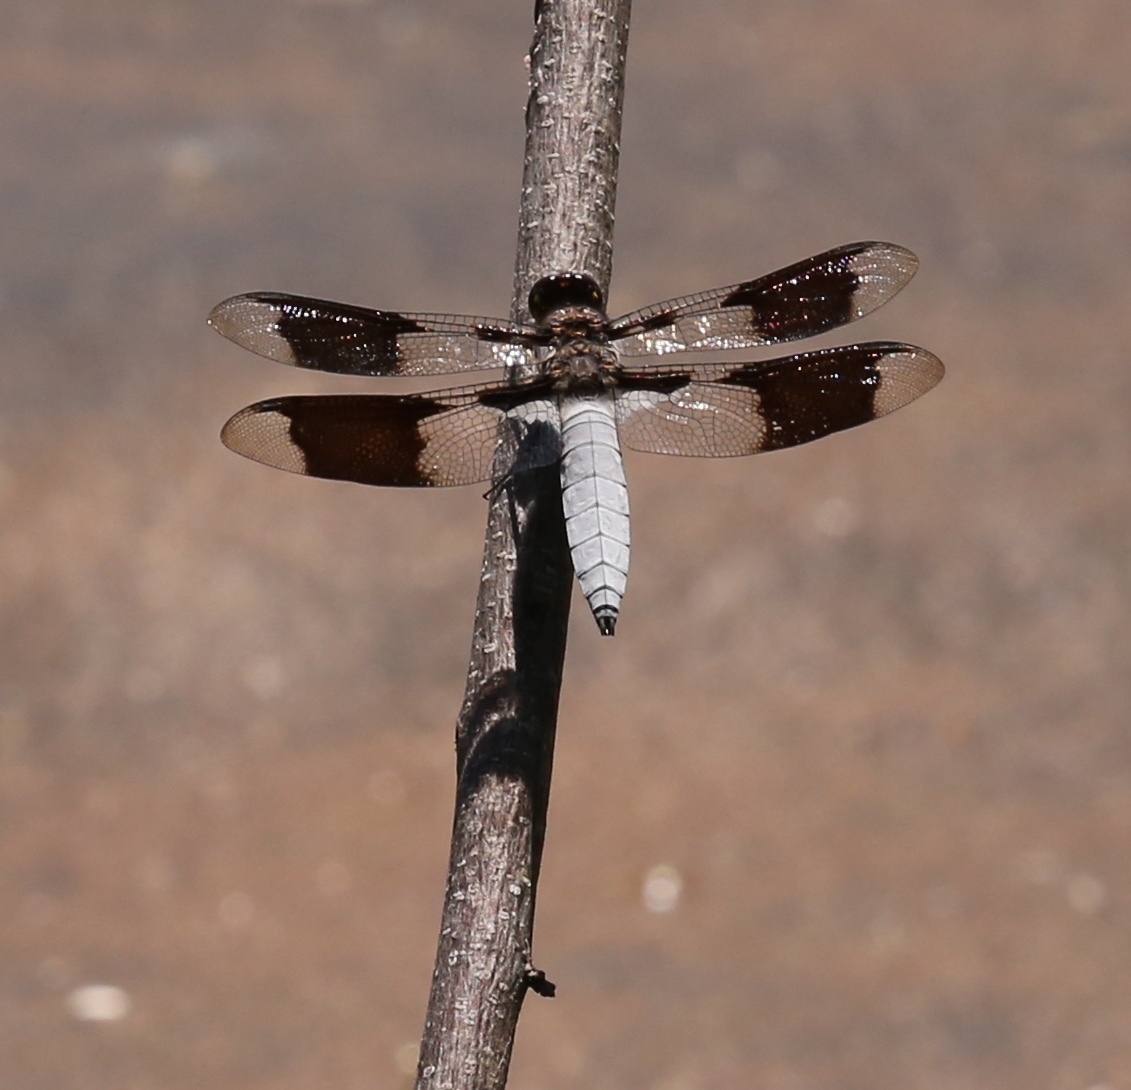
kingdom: Animalia
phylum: Arthropoda
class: Insecta
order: Odonata
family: Libellulidae
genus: Plathemis
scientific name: Plathemis lydia
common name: Common whitetail
